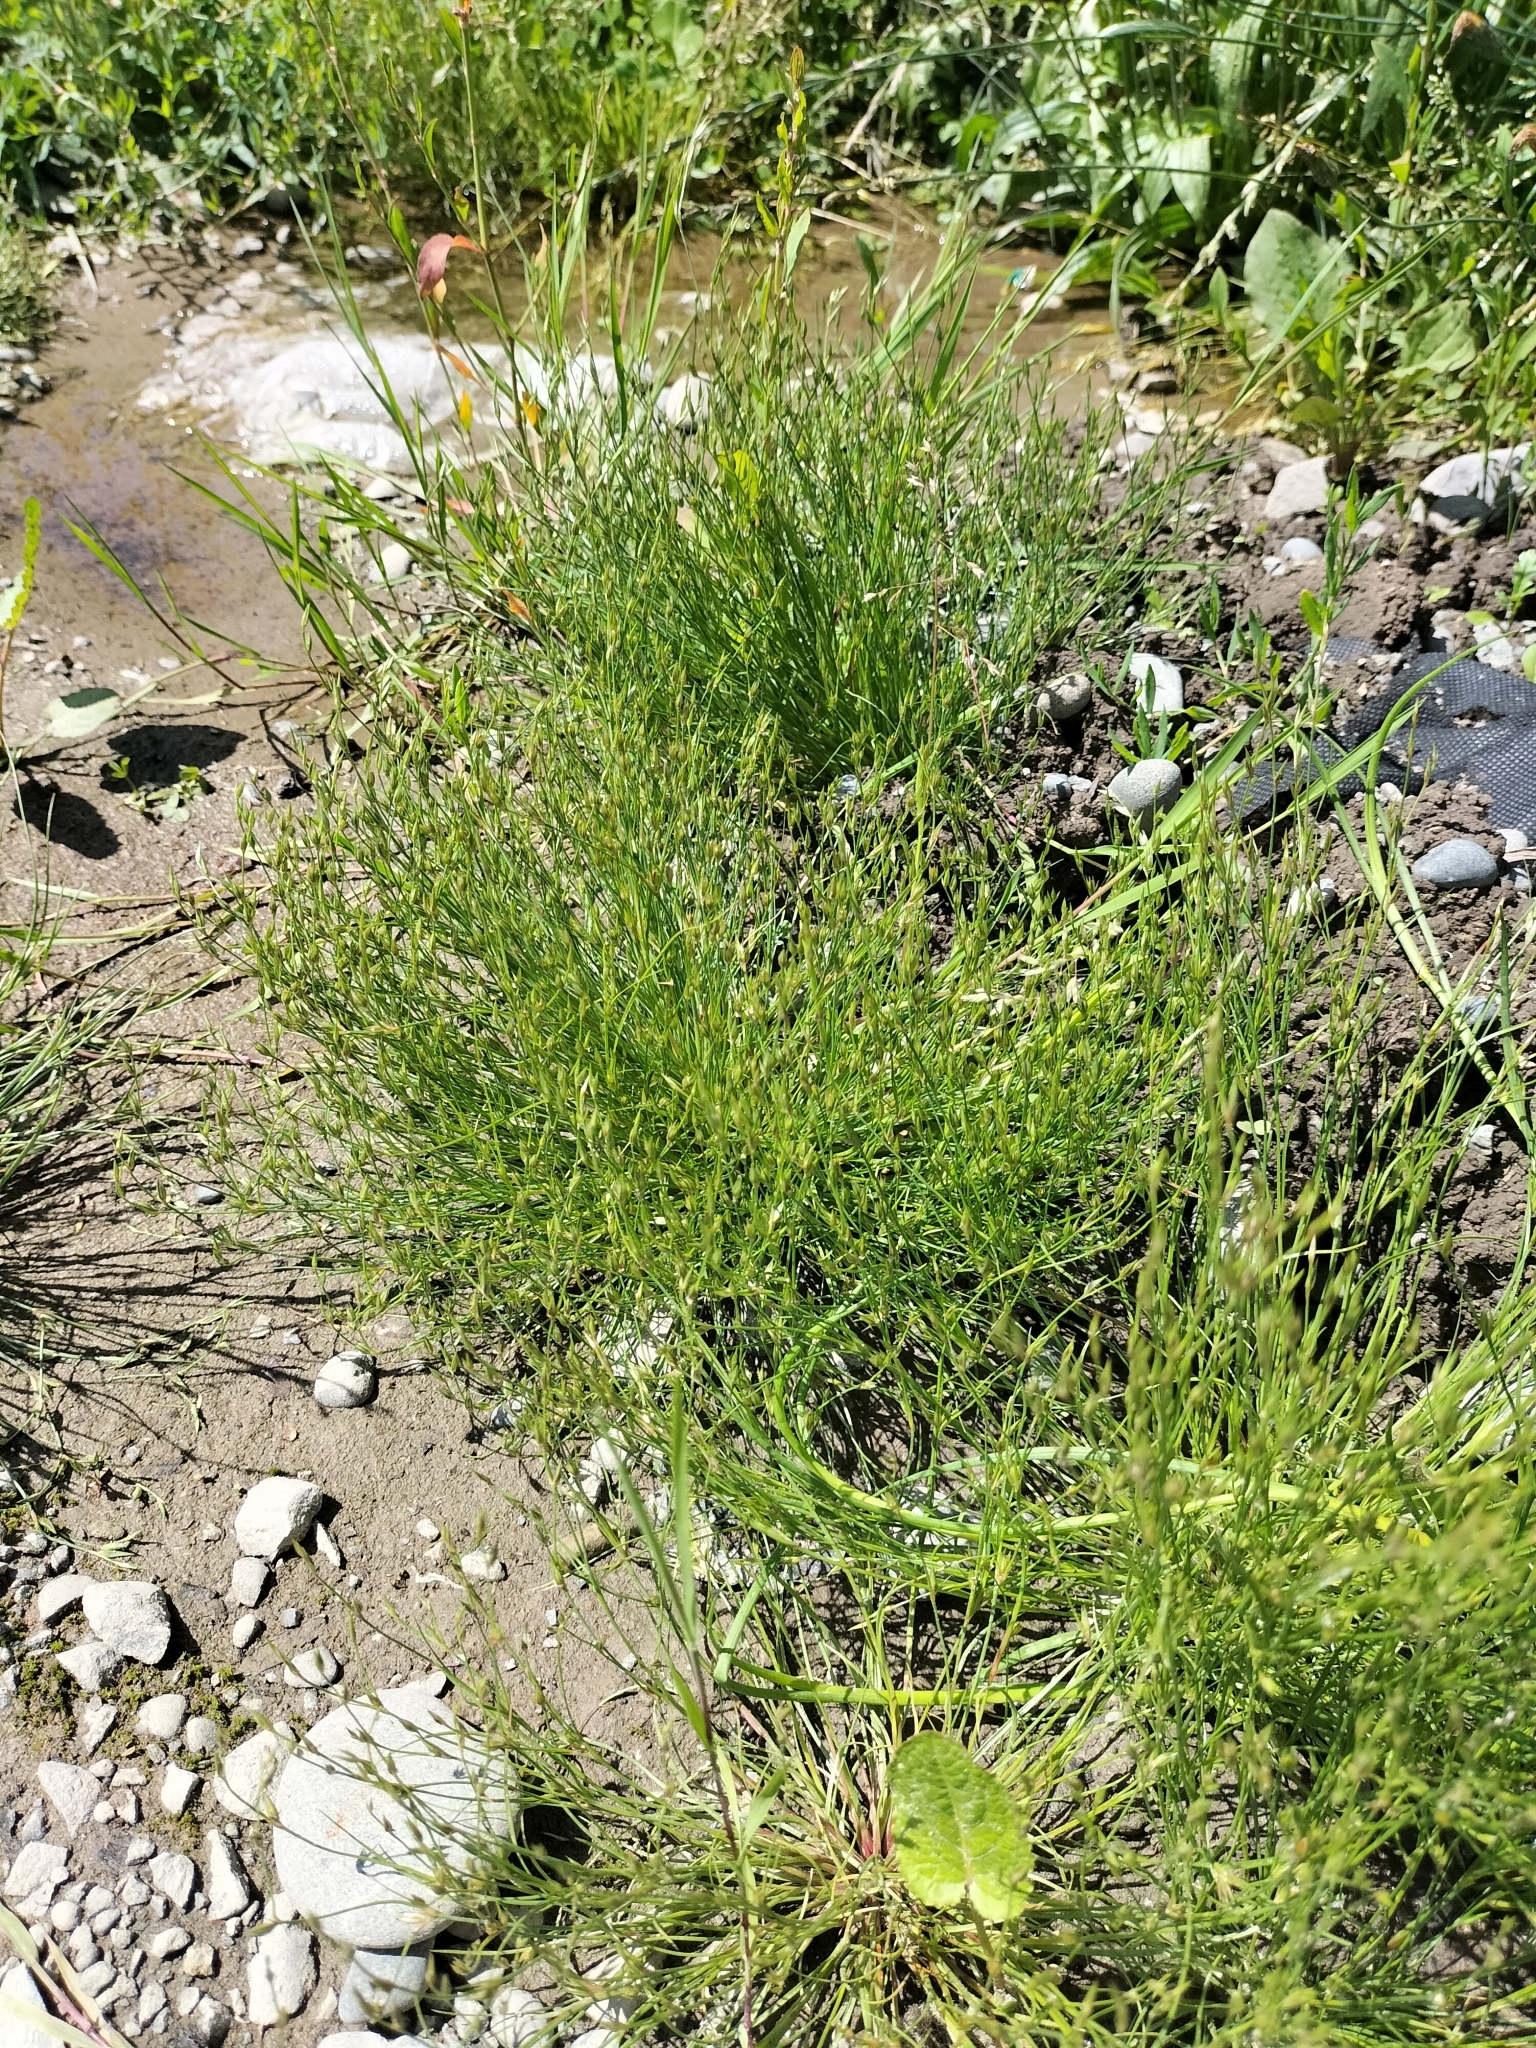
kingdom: Plantae
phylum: Tracheophyta
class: Liliopsida
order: Poales
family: Juncaceae
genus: Juncus
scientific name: Juncus bufonius
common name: Toad rush
